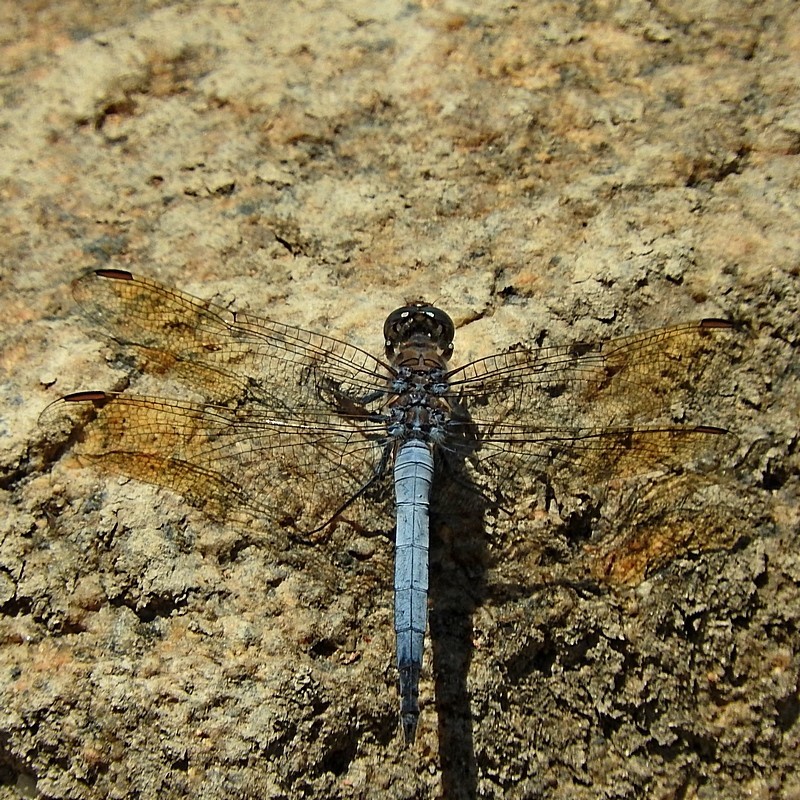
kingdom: Animalia
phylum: Arthropoda
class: Insecta
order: Odonata
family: Libellulidae
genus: Orthetrum
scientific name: Orthetrum caledonicum
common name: Blue skimmer
